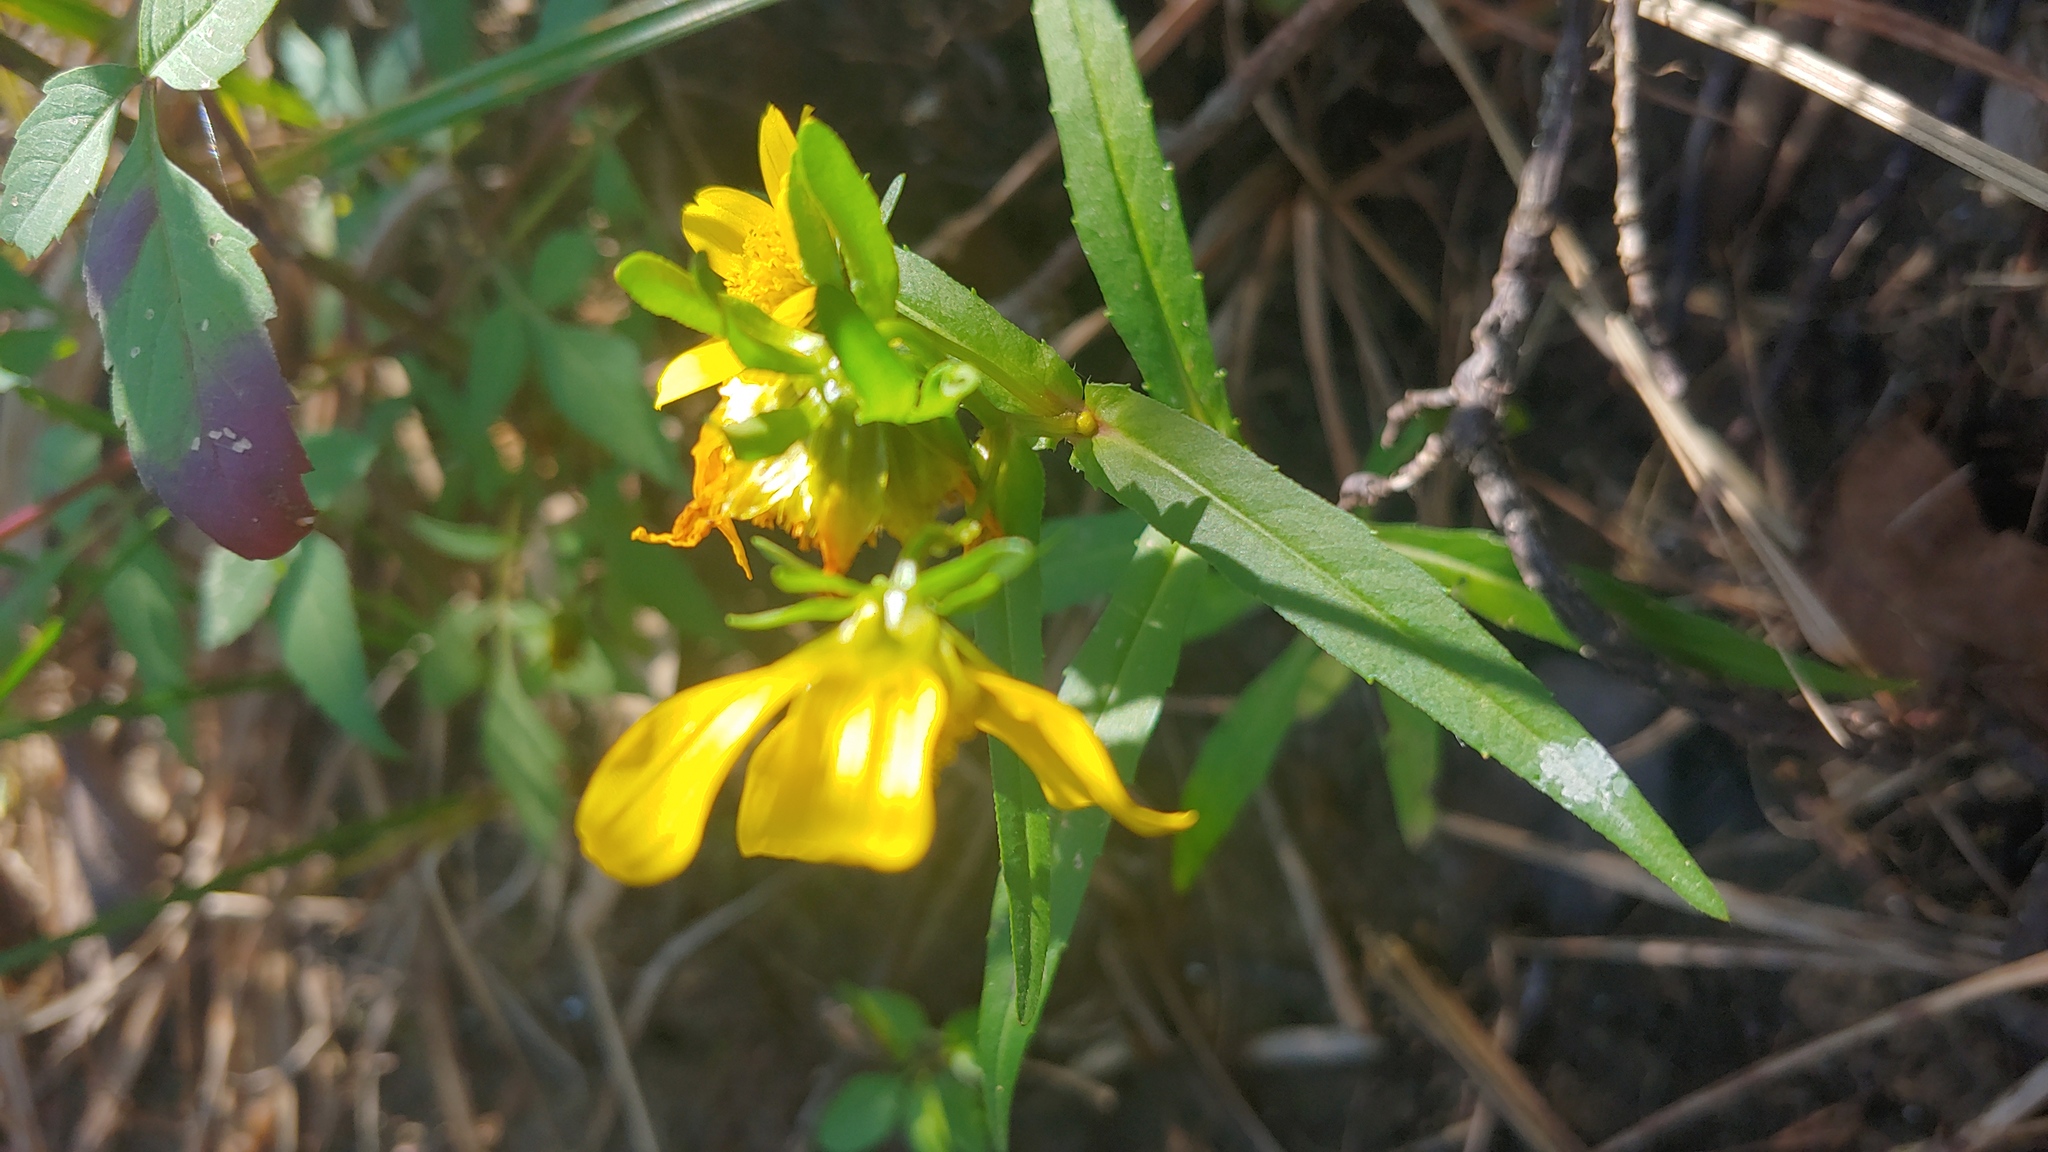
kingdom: Plantae
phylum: Tracheophyta
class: Magnoliopsida
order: Asterales
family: Asteraceae
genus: Bidens
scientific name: Bidens cernua
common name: Nodding bur-marigold
